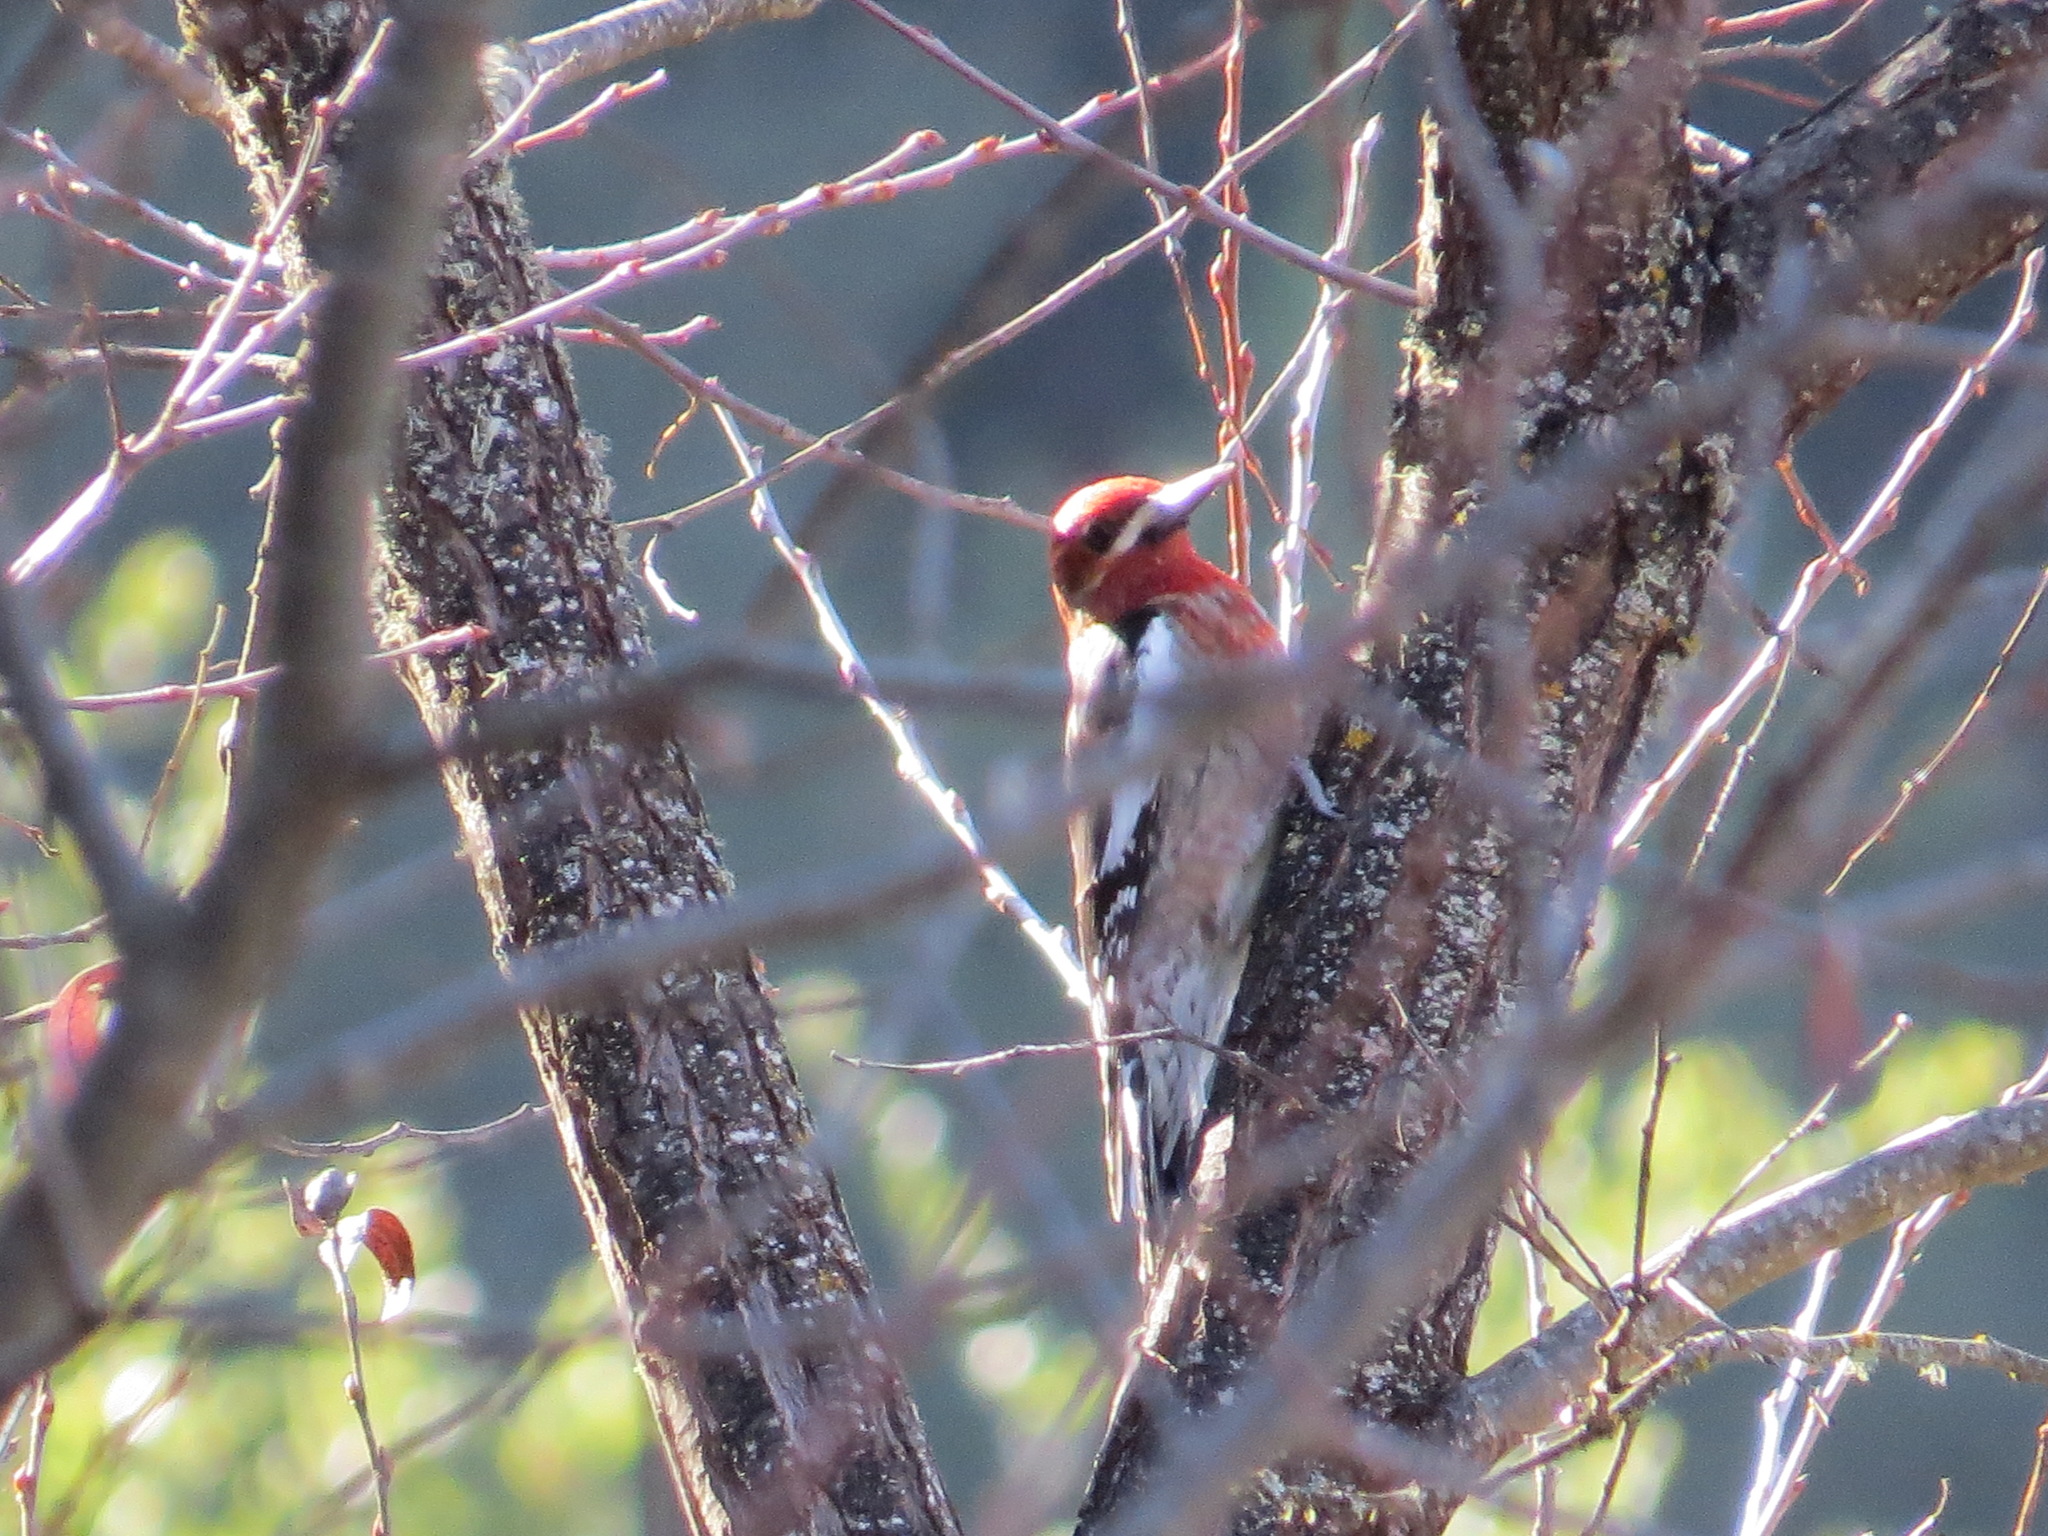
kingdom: Animalia
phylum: Chordata
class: Aves
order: Piciformes
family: Picidae
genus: Sphyrapicus
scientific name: Sphyrapicus ruber
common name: Red-breasted sapsucker
